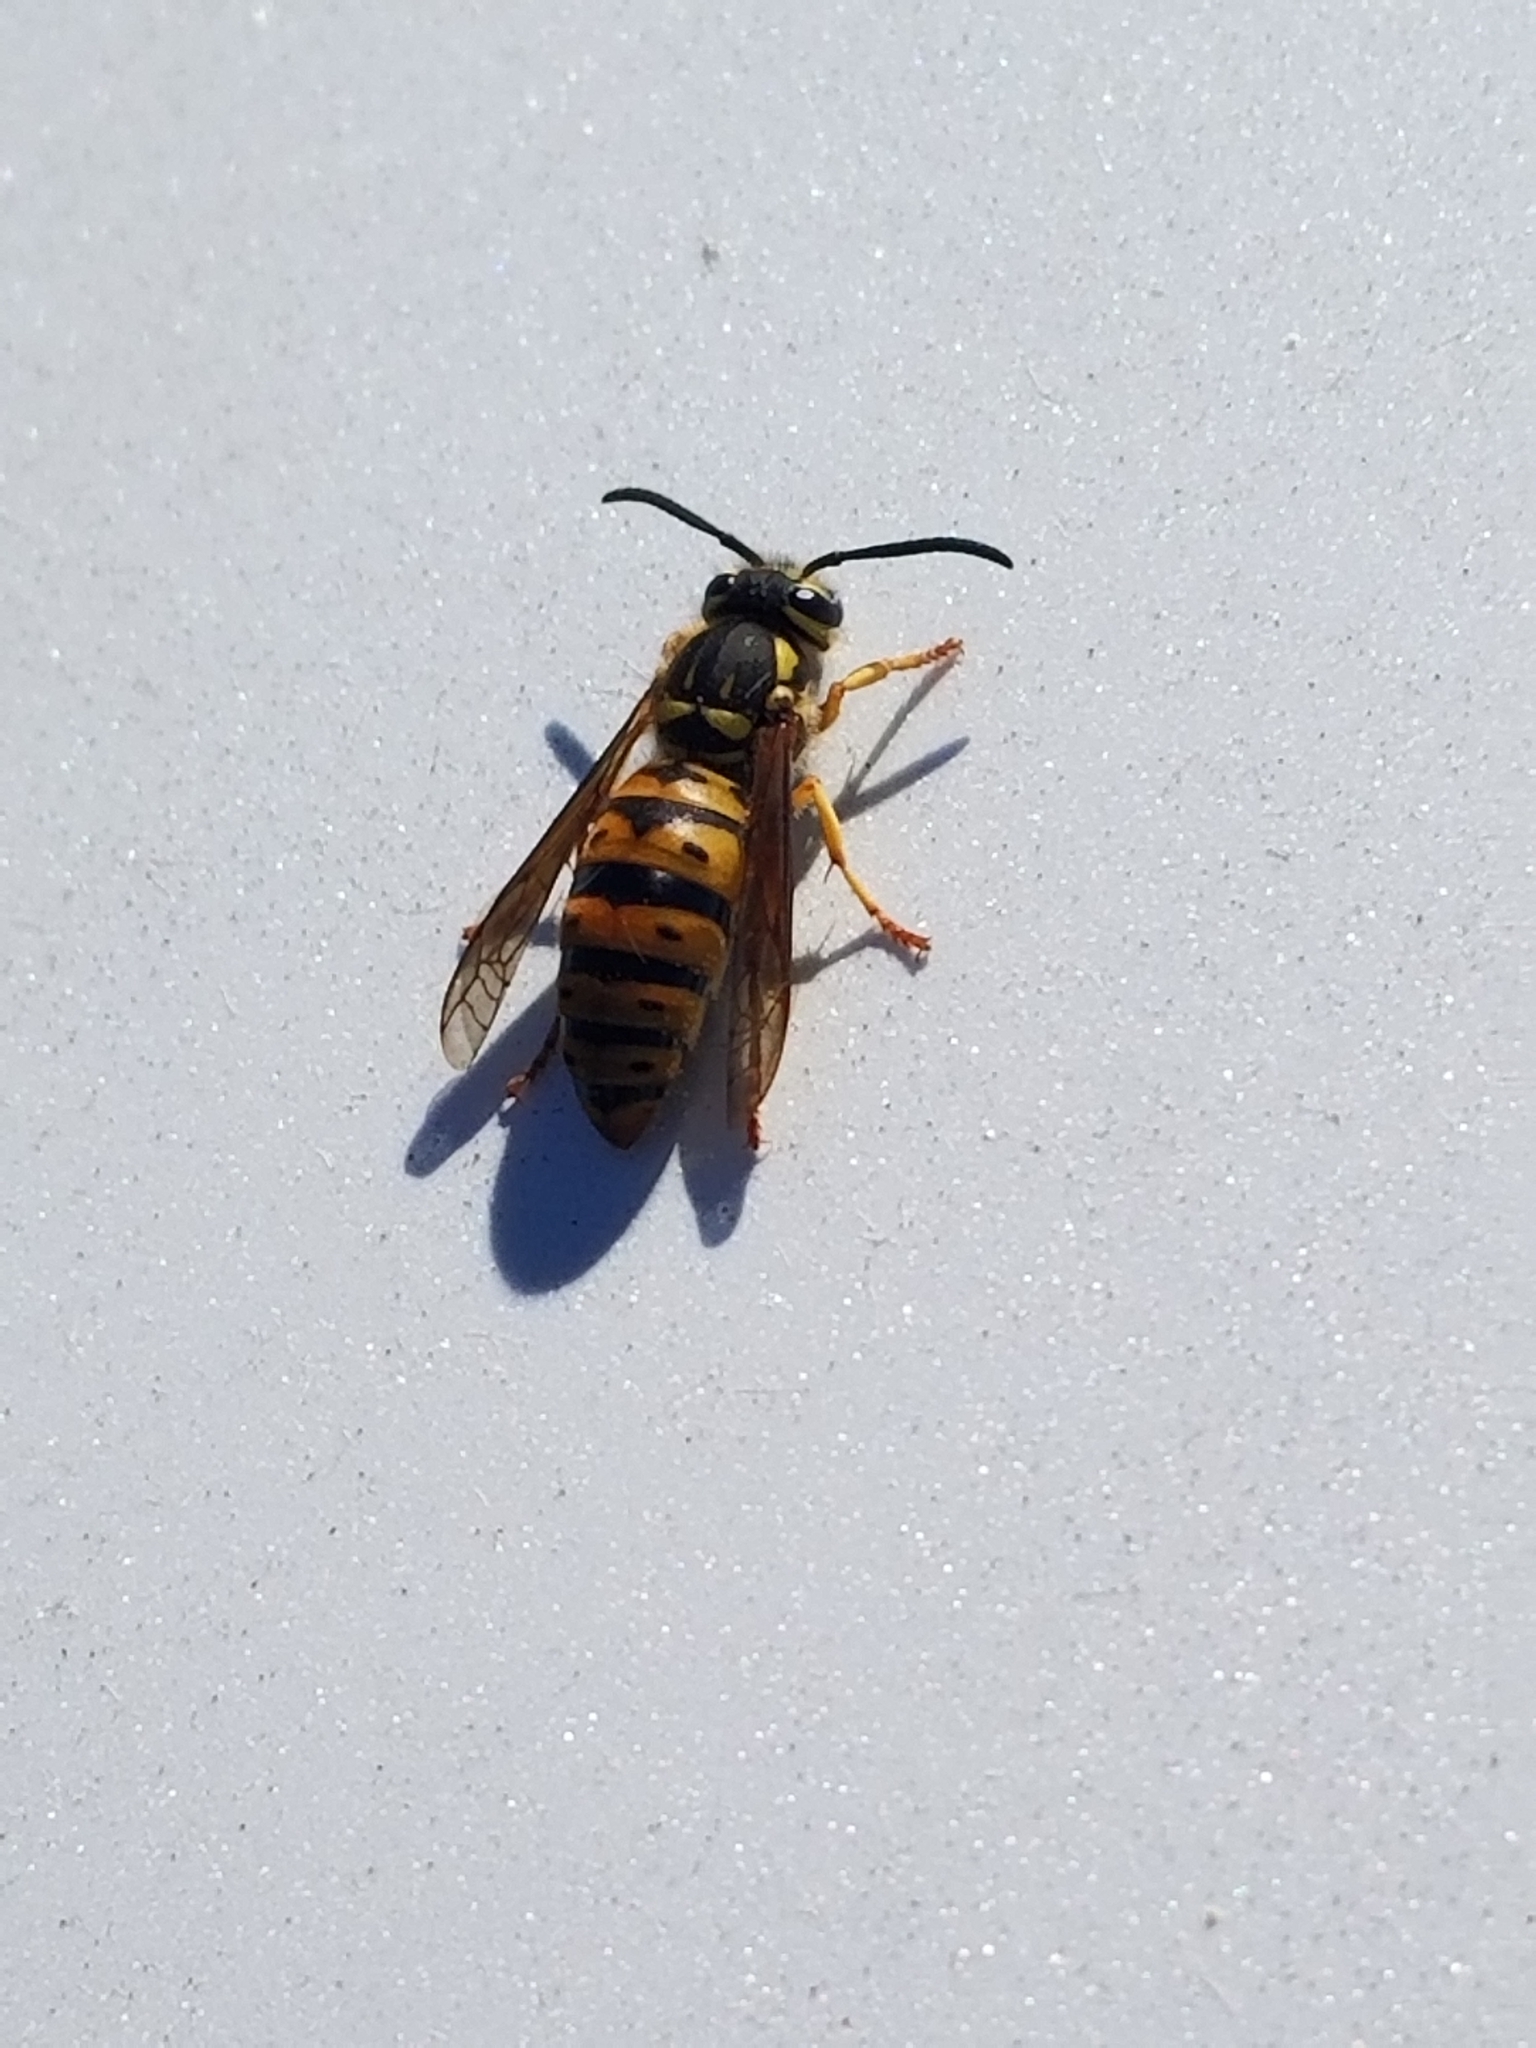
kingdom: Animalia
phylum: Arthropoda
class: Insecta
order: Hymenoptera
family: Vespidae
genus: Vespula
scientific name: Vespula maculifrons
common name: Eastern yellowjacket
